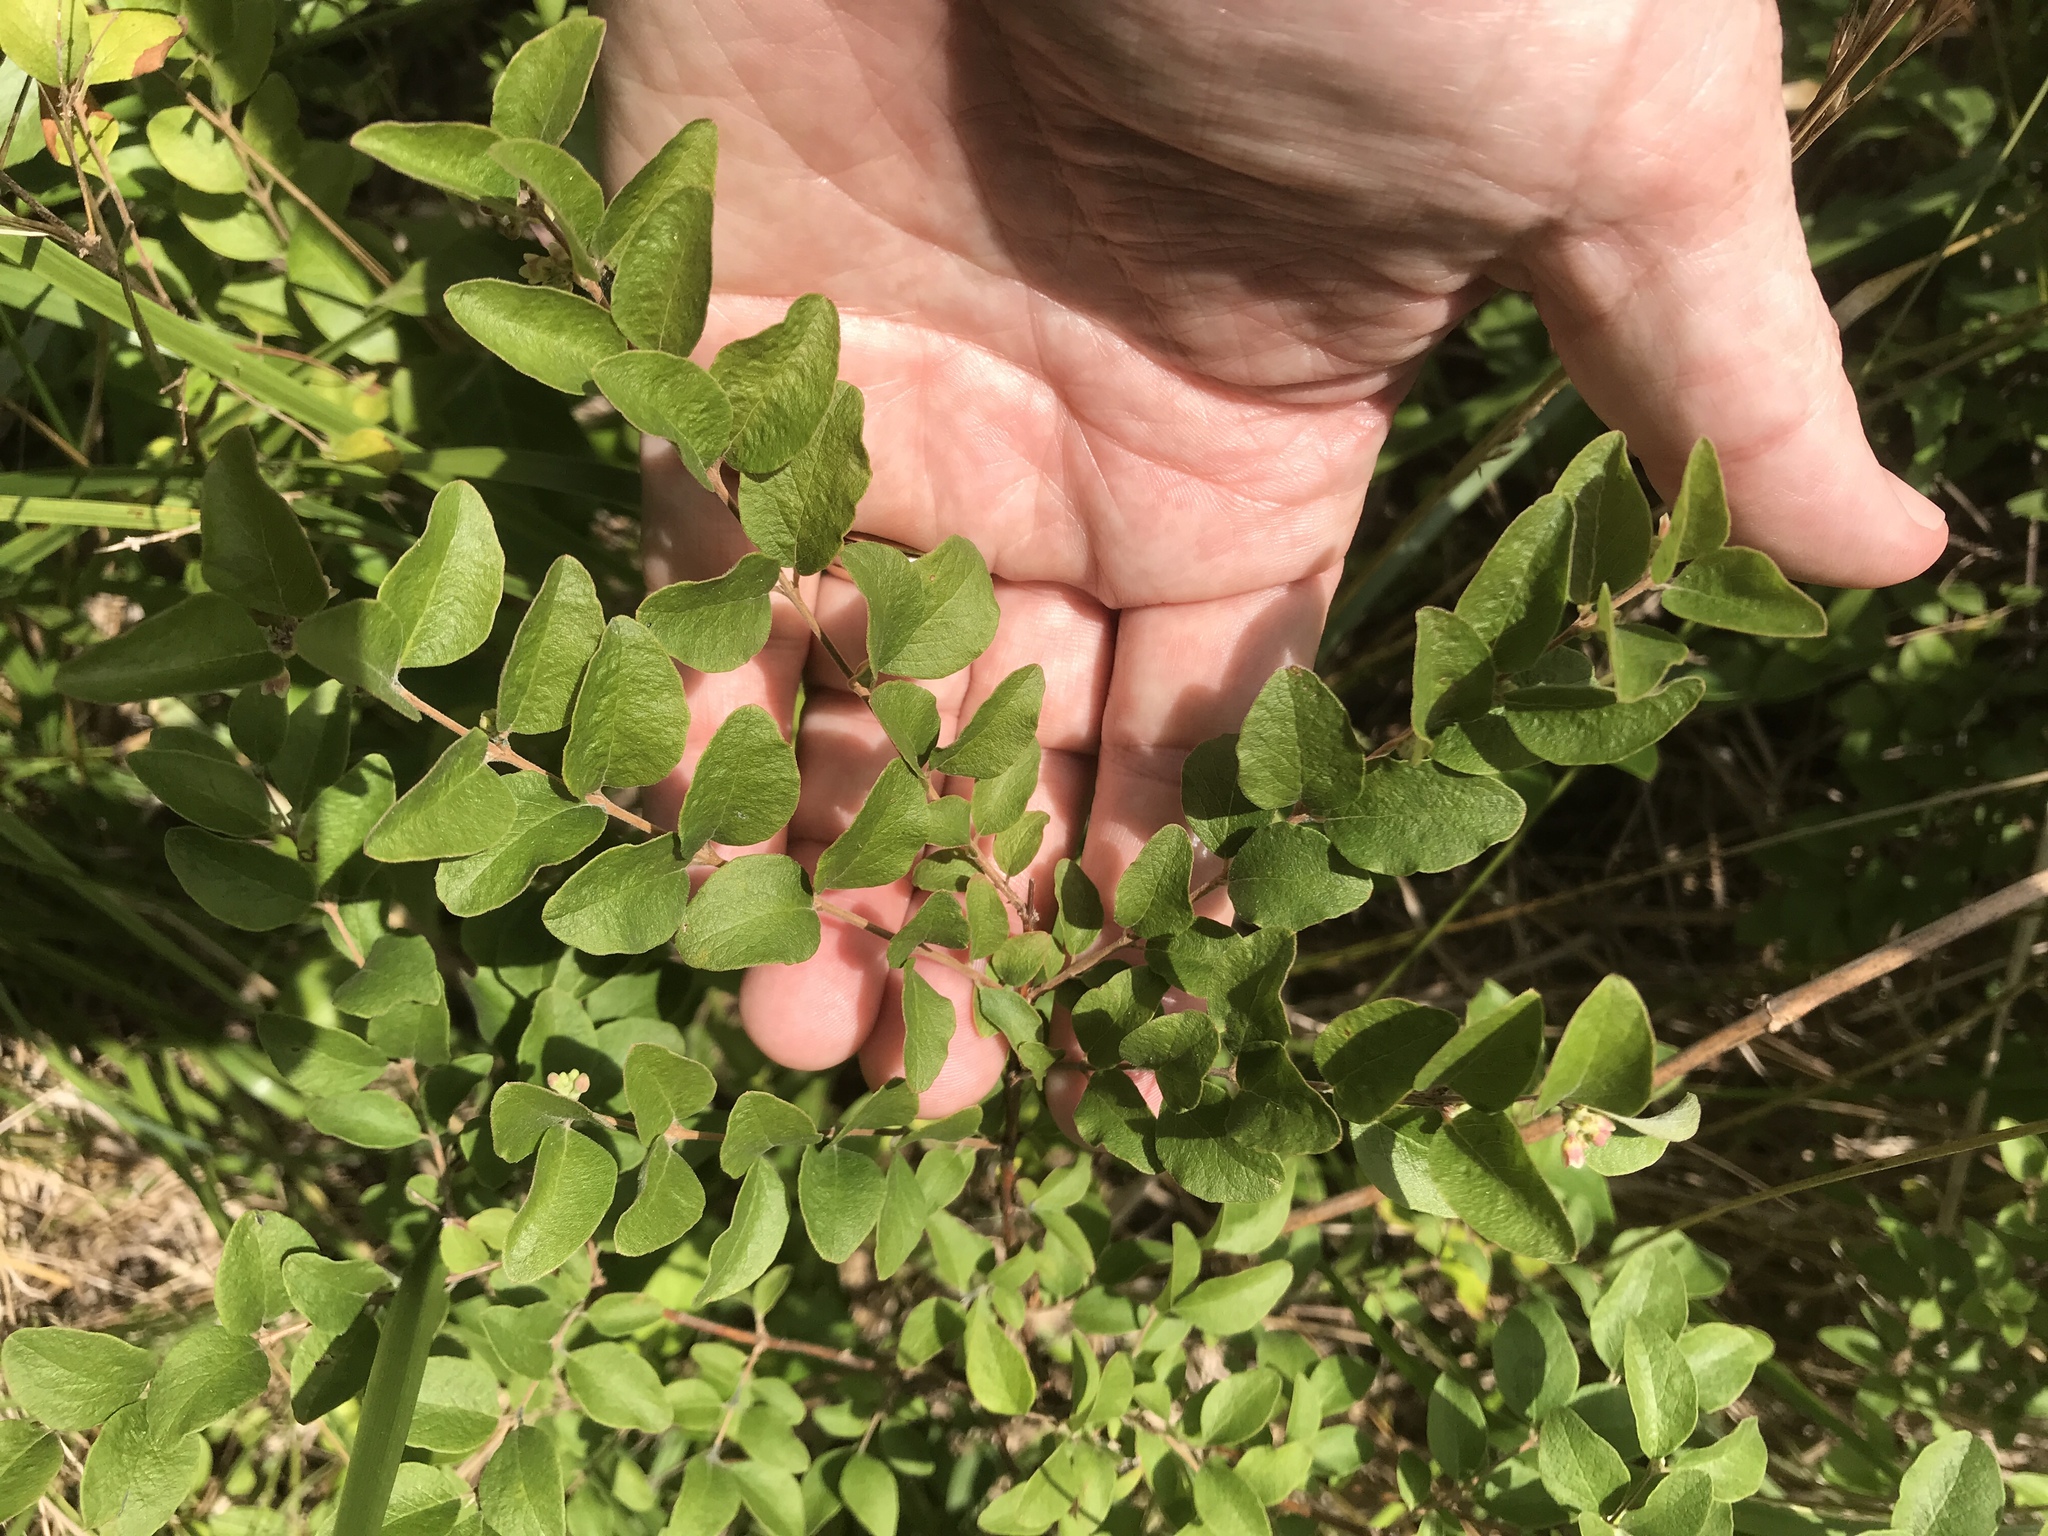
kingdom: Plantae
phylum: Tracheophyta
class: Magnoliopsida
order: Dipsacales
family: Caprifoliaceae
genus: Symphoricarpos
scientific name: Symphoricarpos orbiculatus
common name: Coralberry
